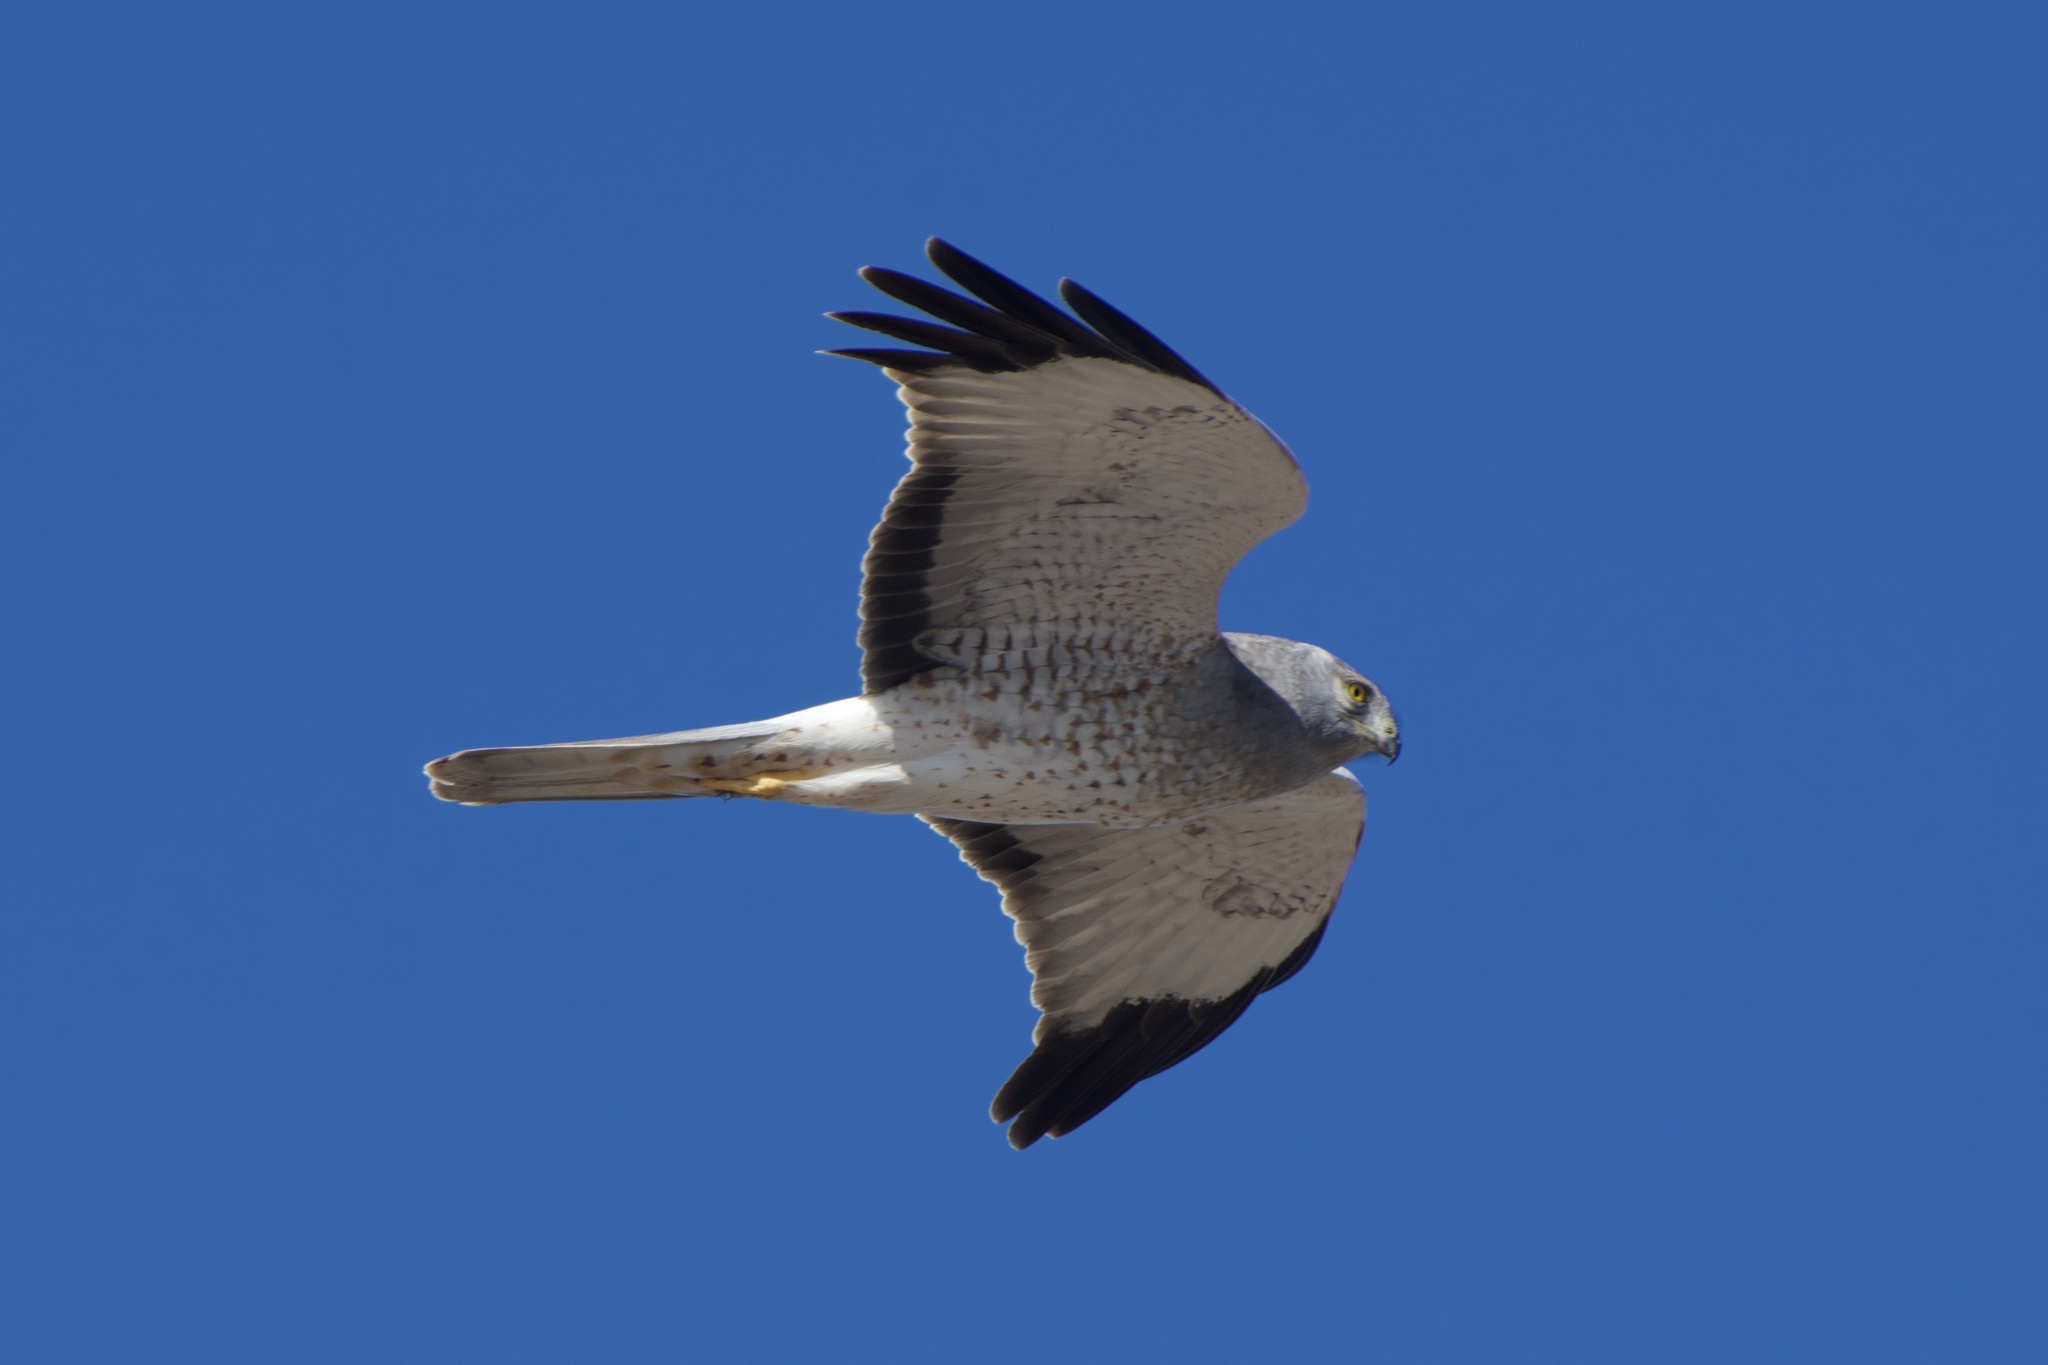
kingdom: Animalia
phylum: Chordata
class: Aves
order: Accipitriformes
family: Accipitridae
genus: Circus
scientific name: Circus cyaneus
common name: Hen harrier
